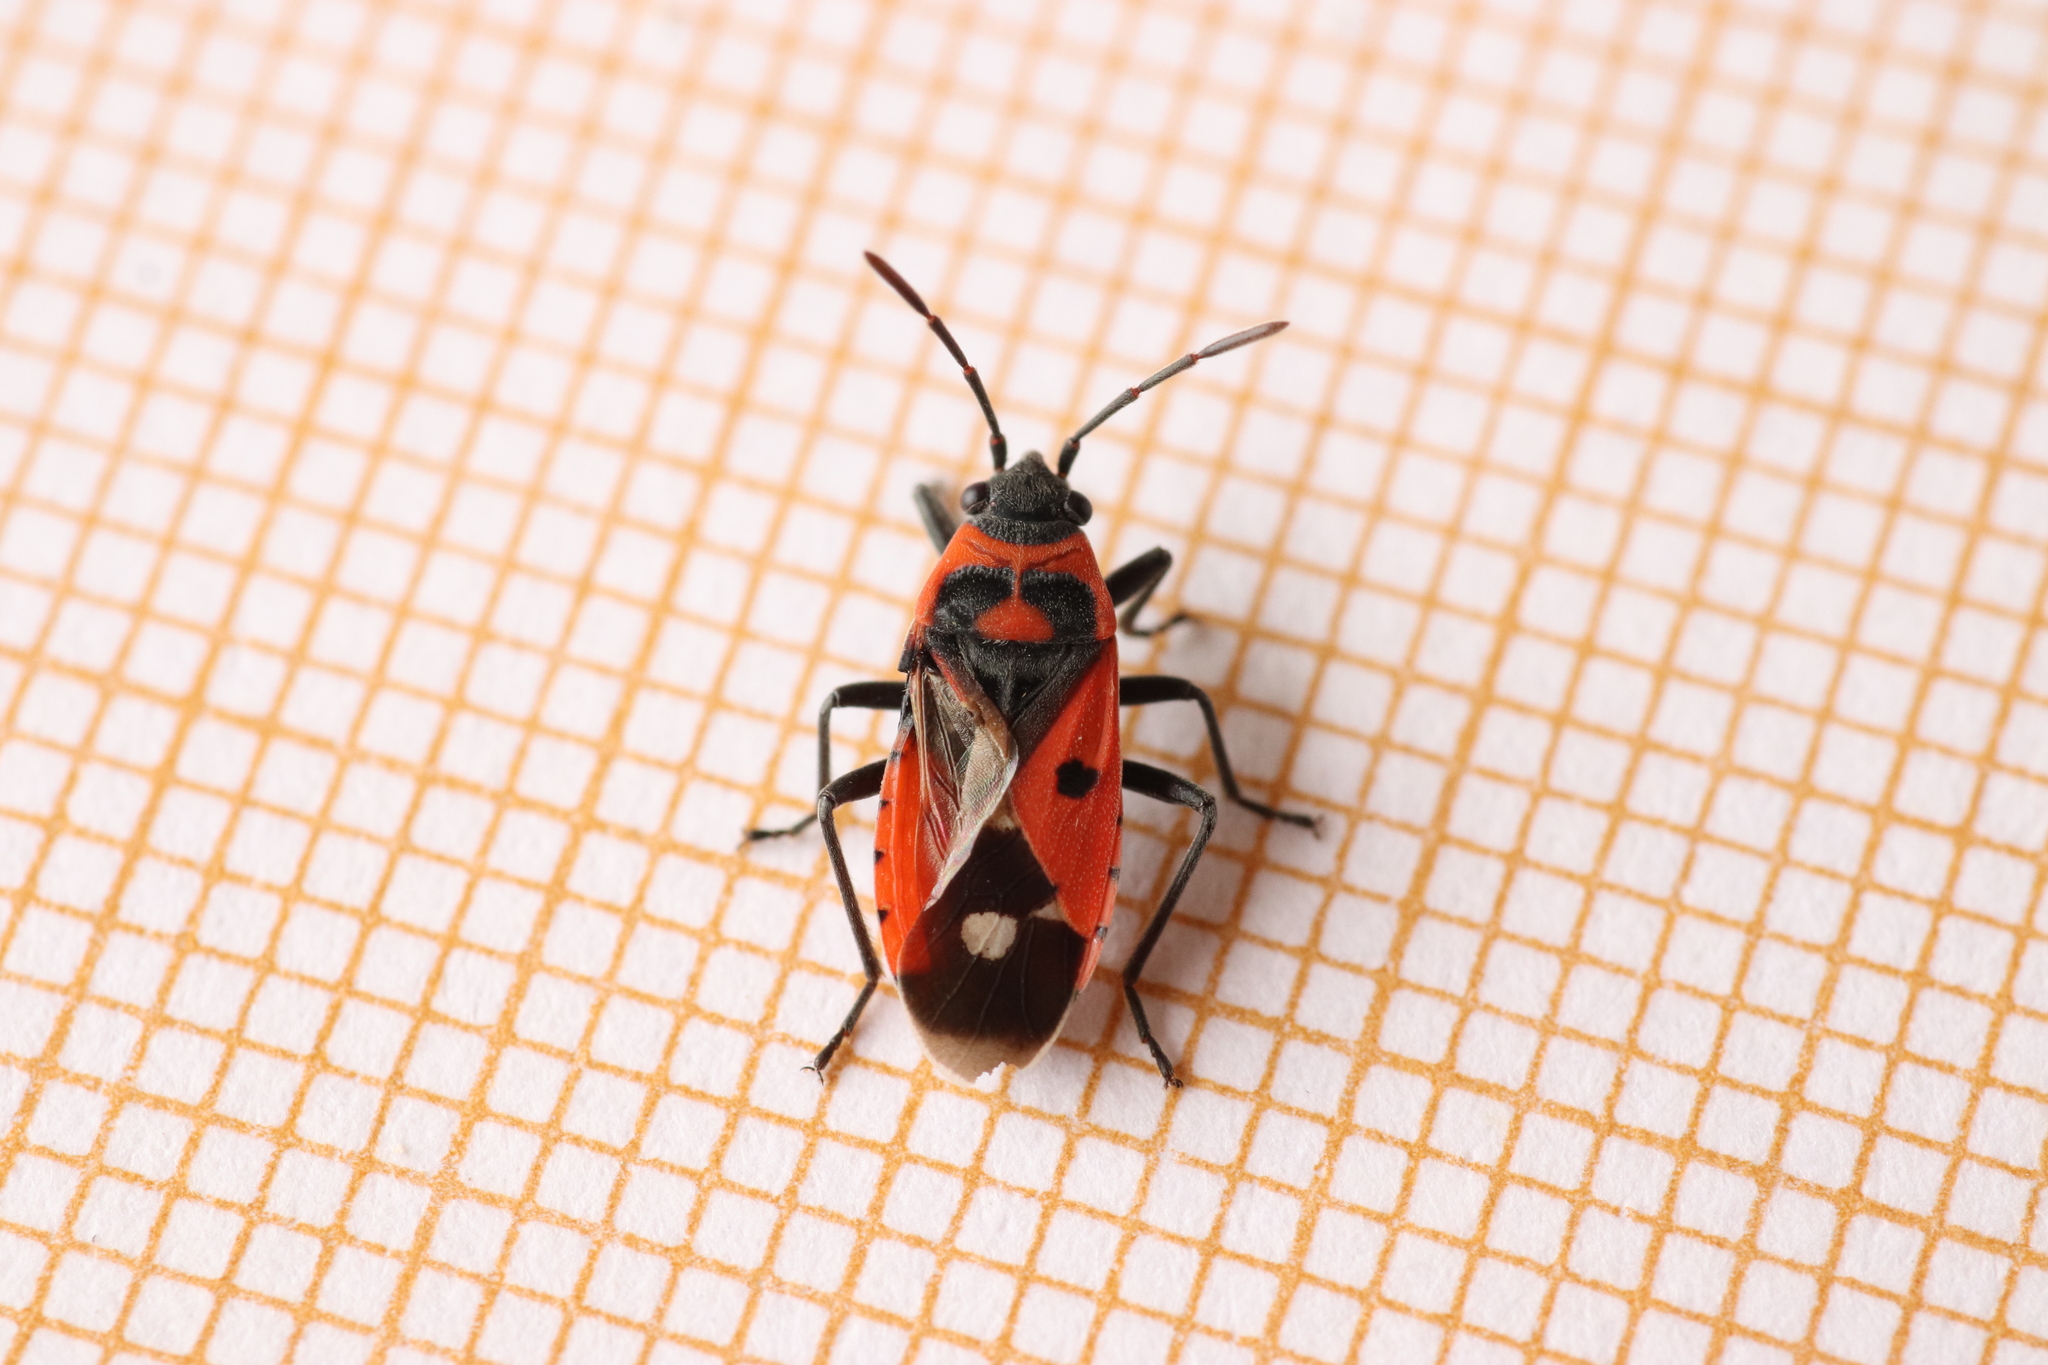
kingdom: Animalia
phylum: Arthropoda
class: Insecta
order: Hemiptera
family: Lygaeidae
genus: Melanocoryphus
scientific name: Melanocoryphus albomaculatus
